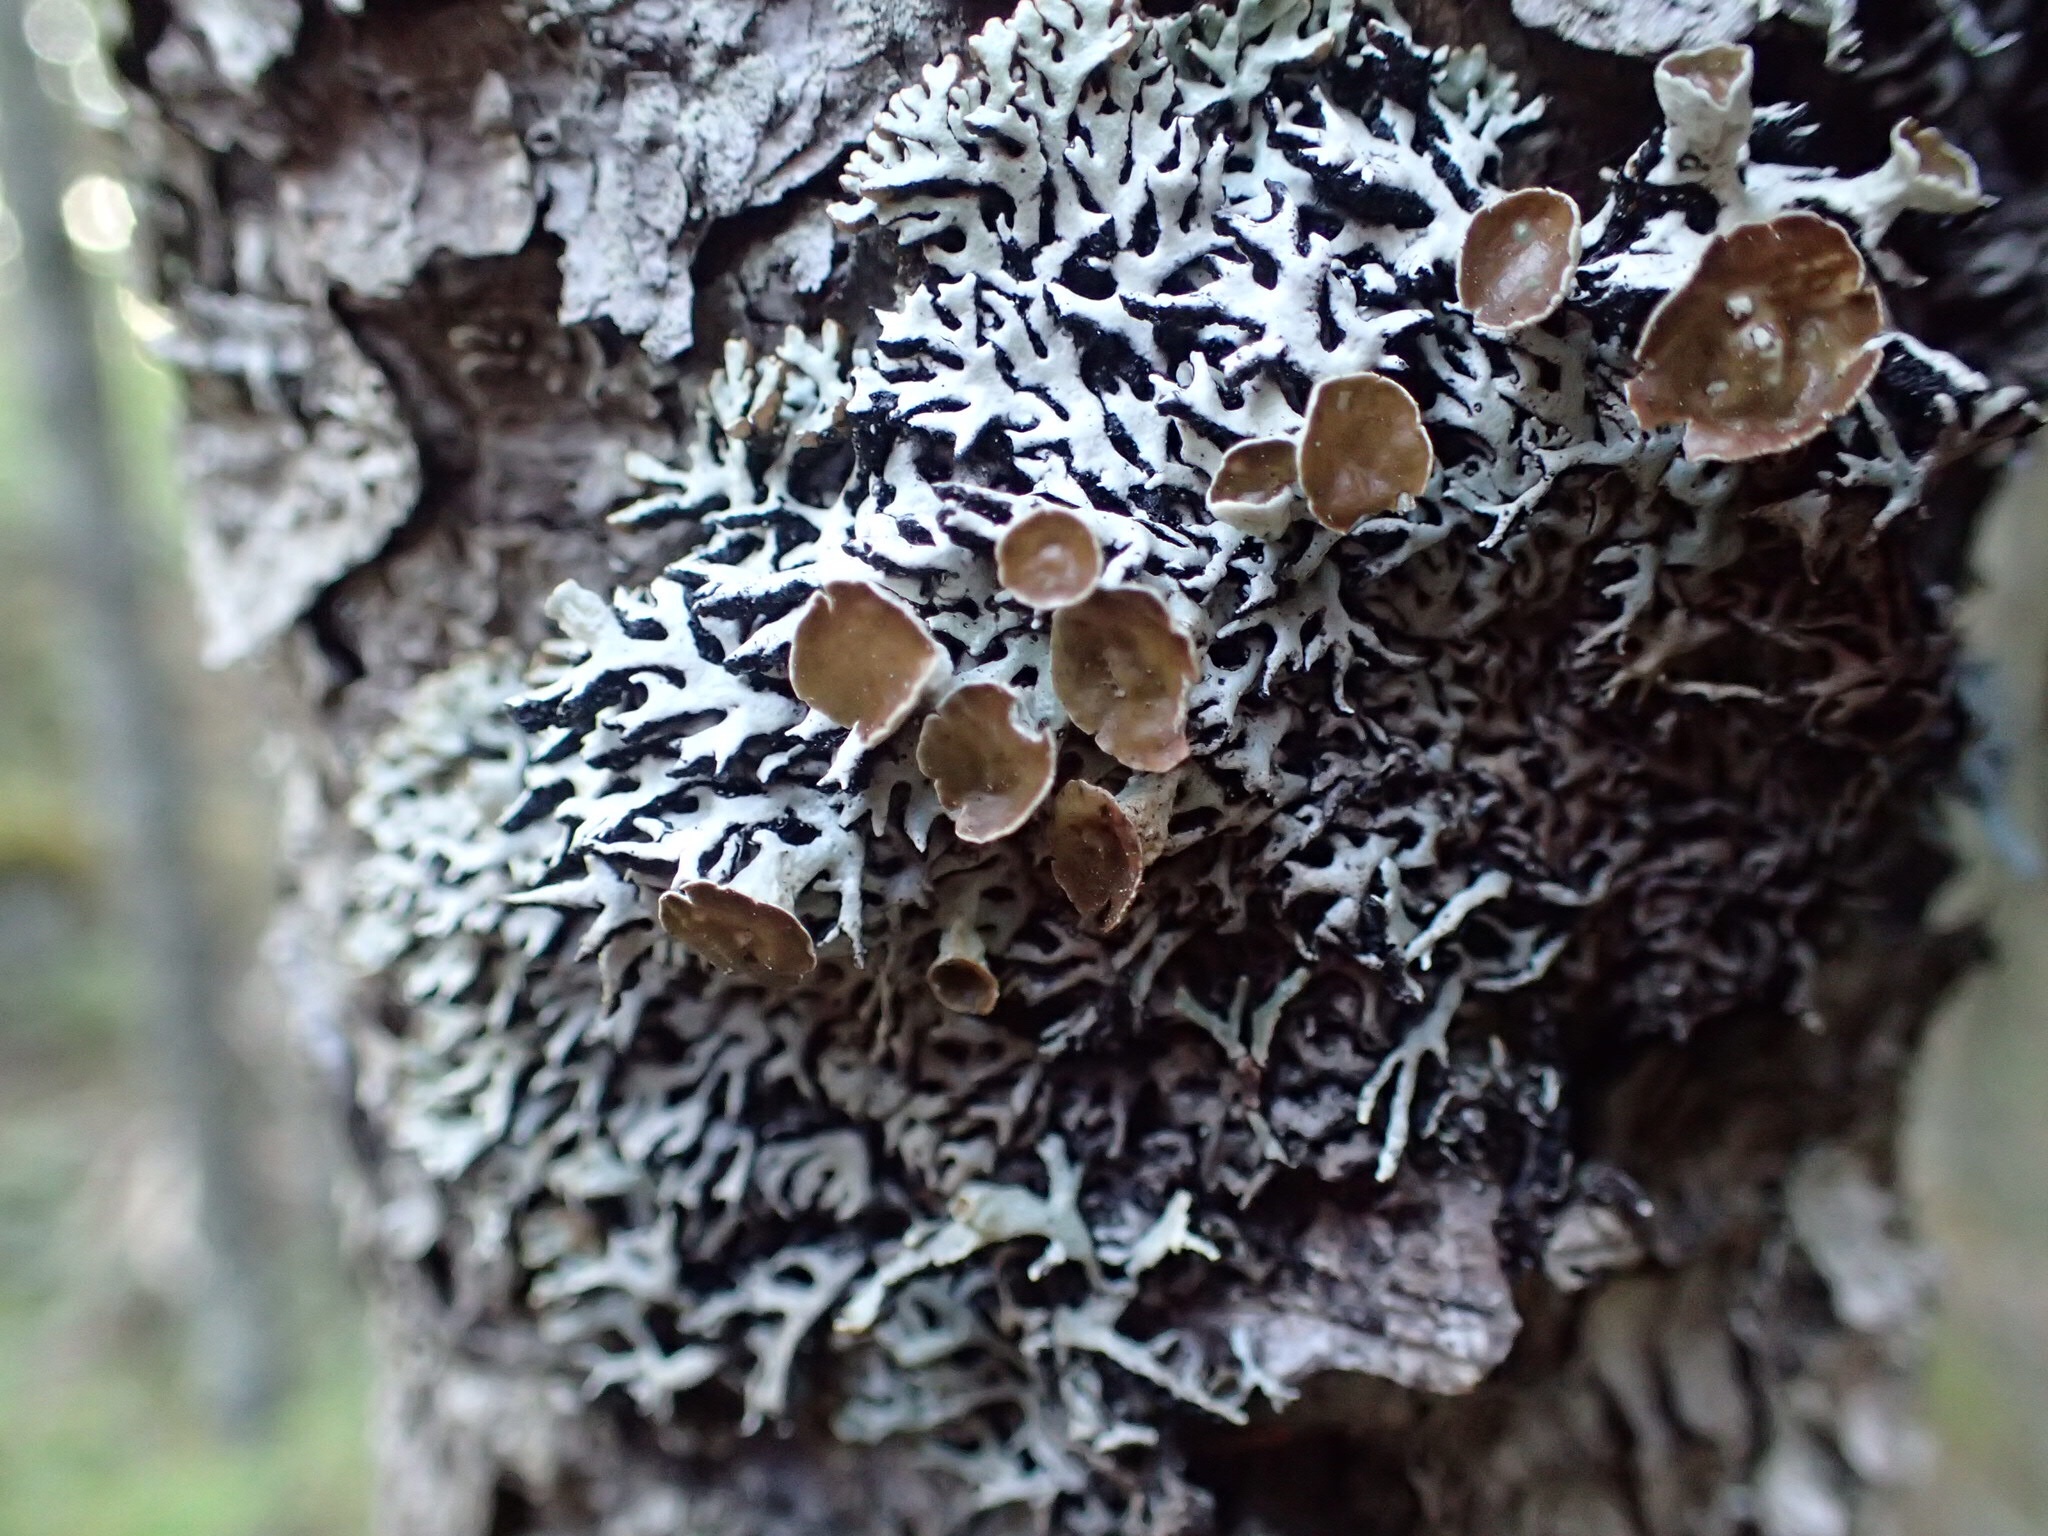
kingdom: Fungi
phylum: Ascomycota
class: Lecanoromycetes
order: Lecanorales
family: Parmeliaceae
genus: Hypogymnia
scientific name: Hypogymnia krogiae
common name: Freckled tube lichen
